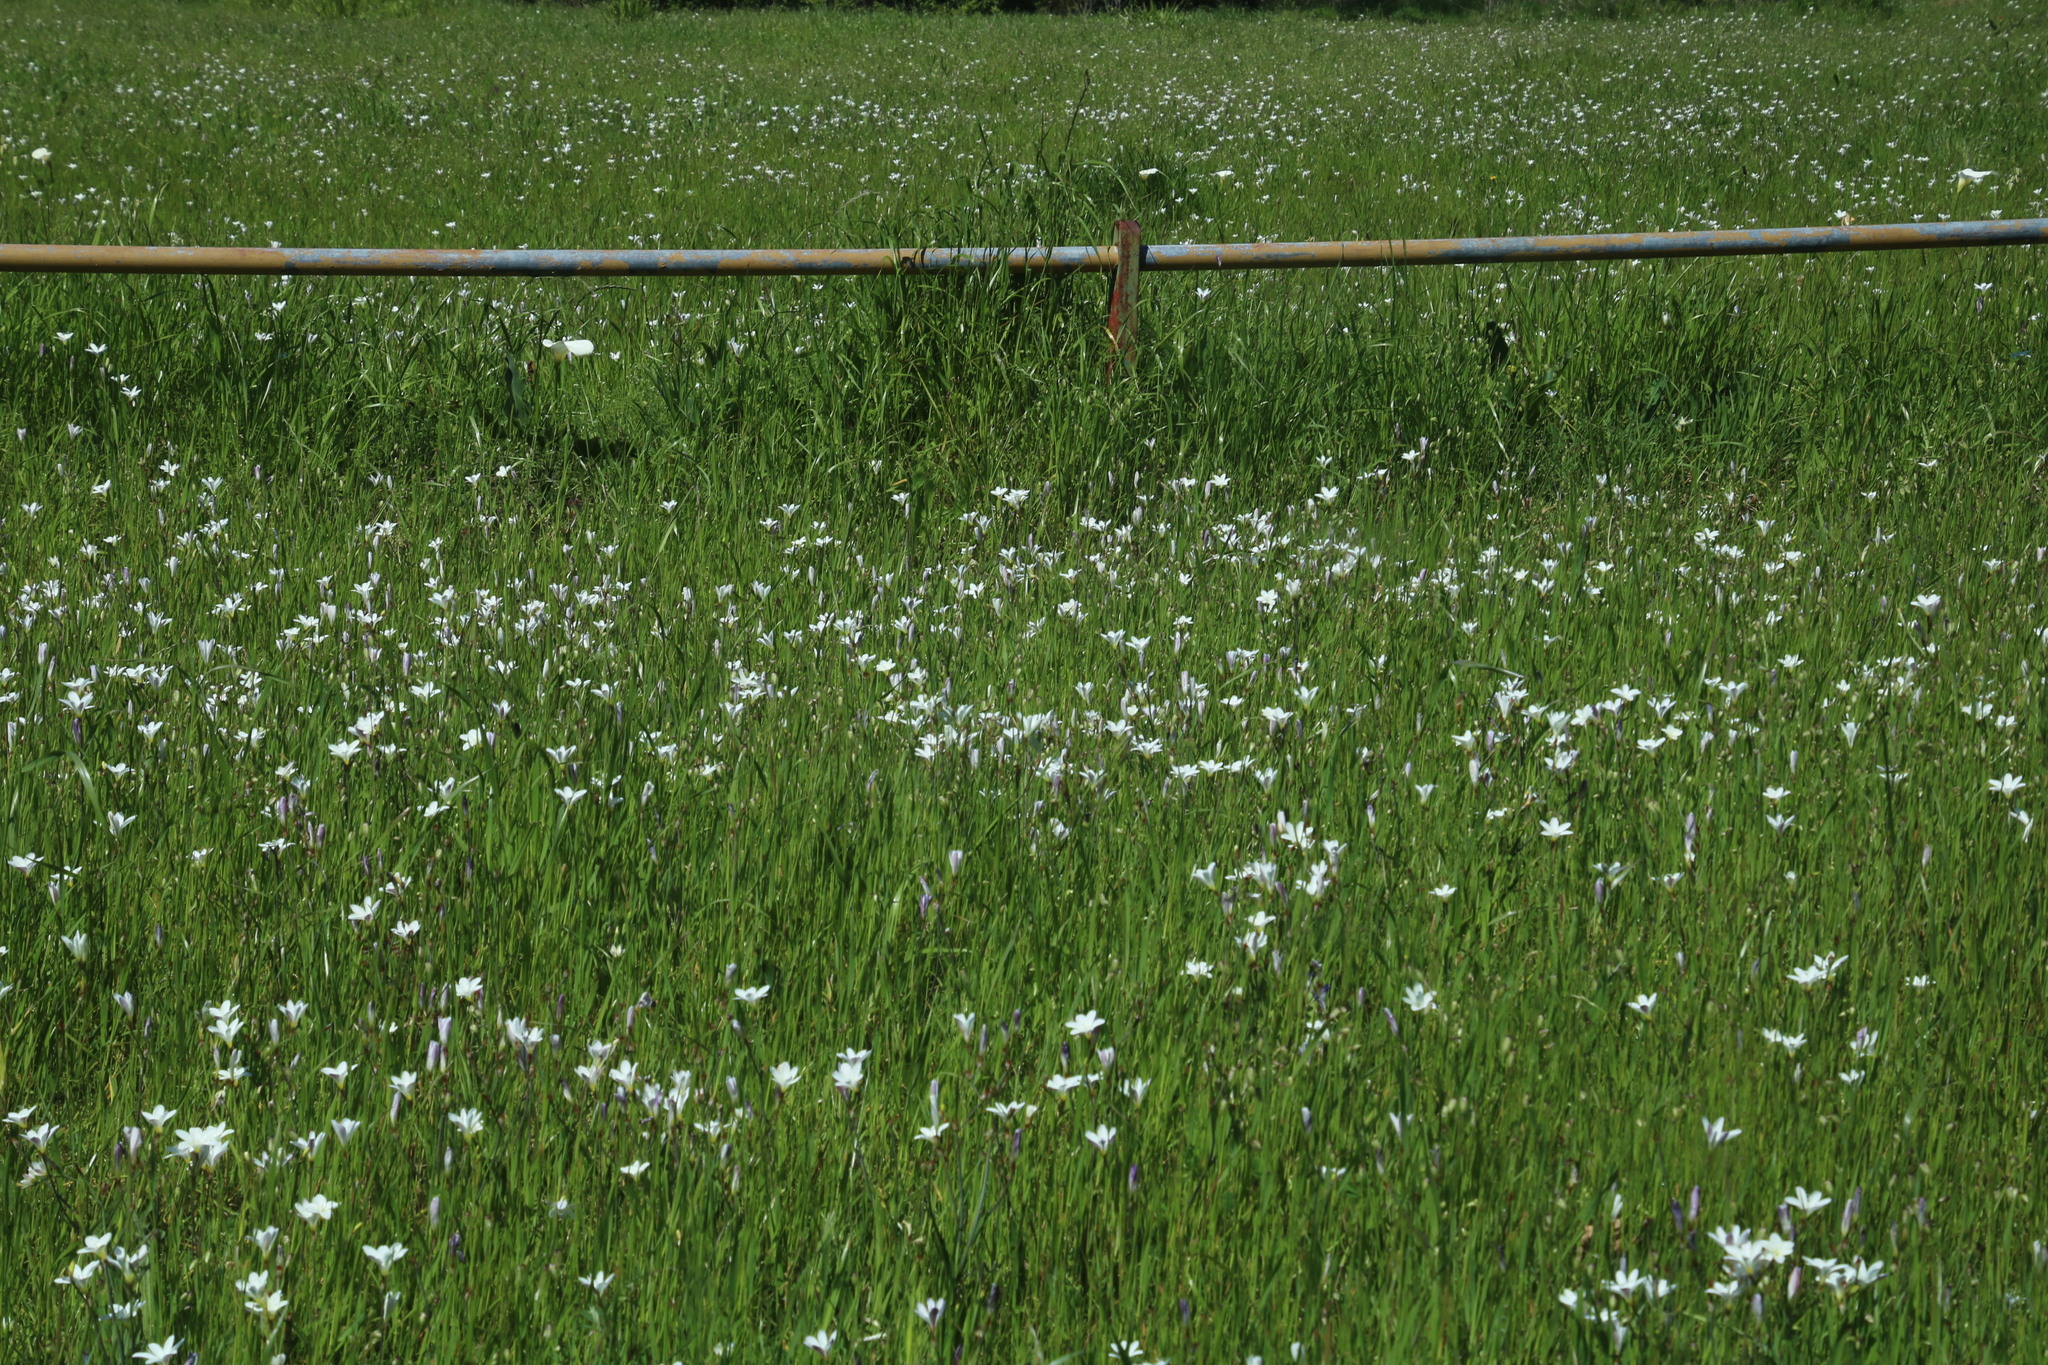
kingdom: Plantae
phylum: Tracheophyta
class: Liliopsida
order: Asparagales
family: Iridaceae
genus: Sparaxis
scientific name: Sparaxis bulbifera
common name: Harlequin-flower
